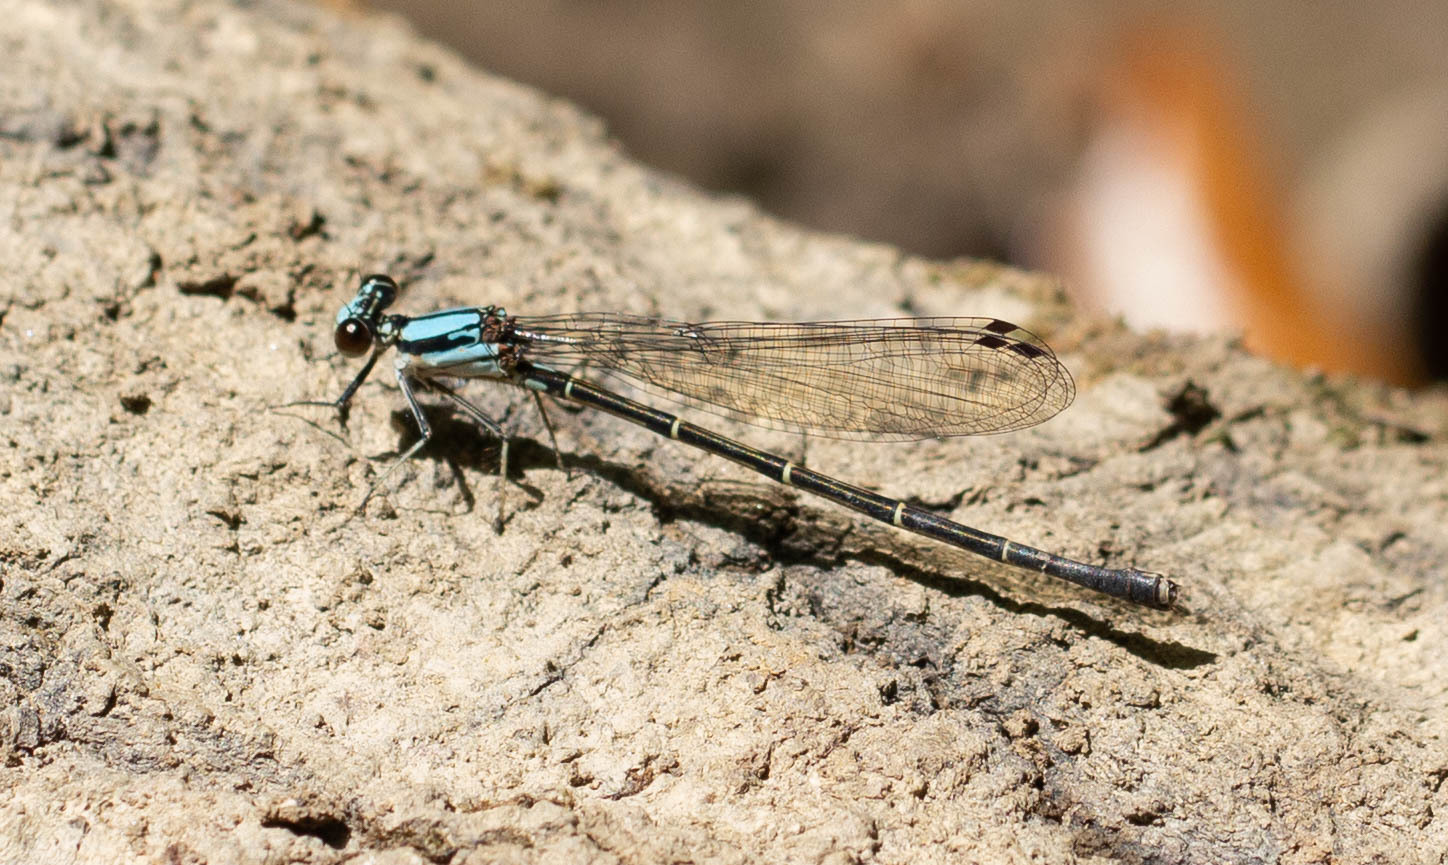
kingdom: Animalia
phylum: Arthropoda
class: Insecta
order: Odonata
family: Coenagrionidae
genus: Argia
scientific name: Argia tibialis
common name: Blue-tipped dancer
